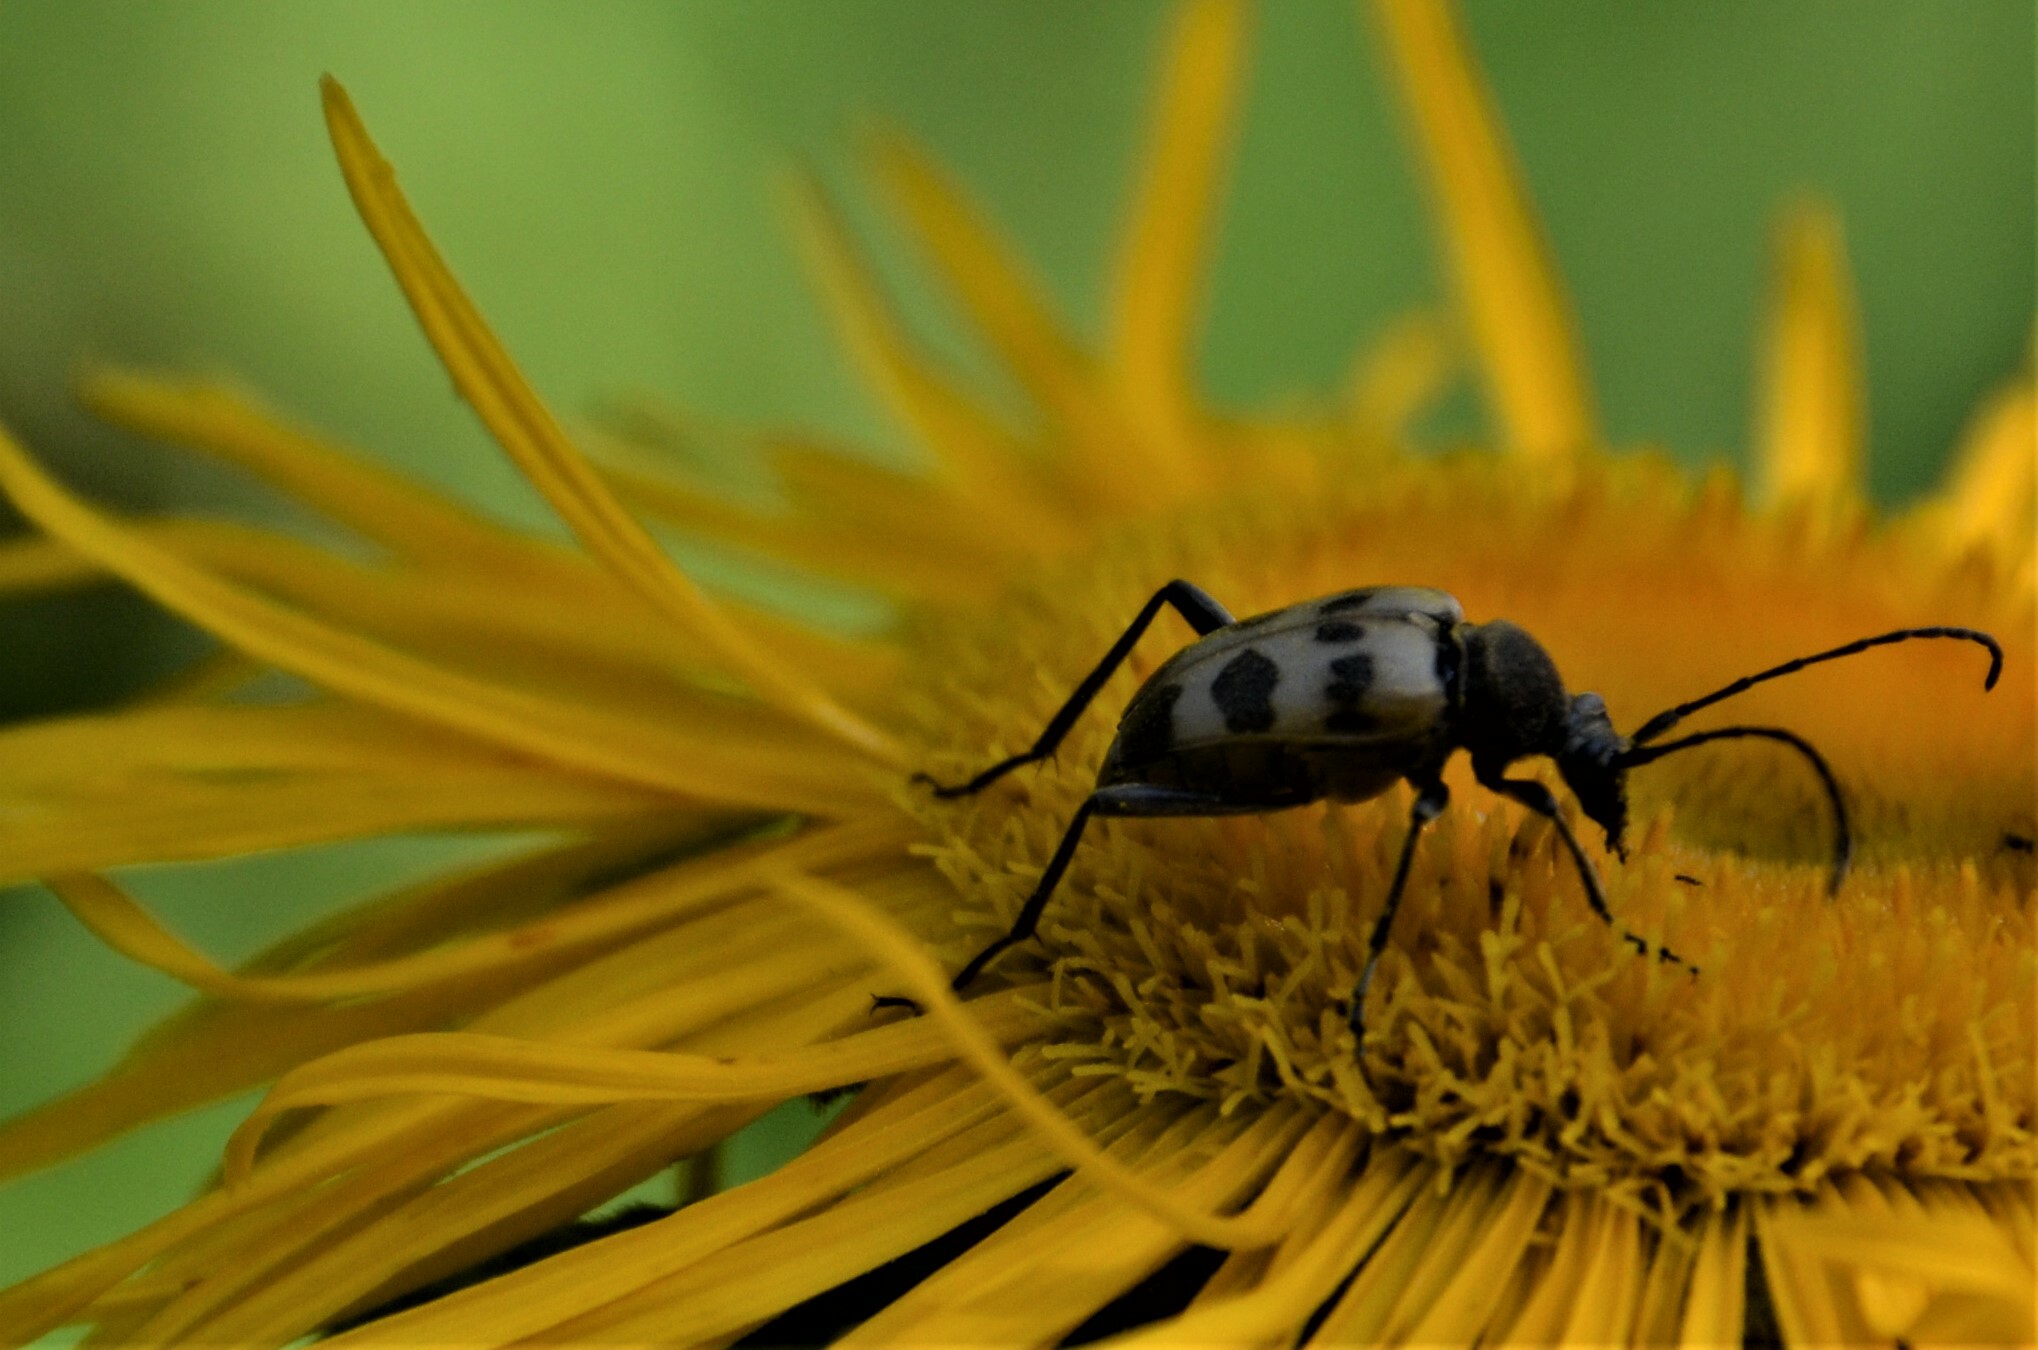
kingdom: Animalia
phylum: Arthropoda
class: Insecta
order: Coleoptera
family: Cerambycidae
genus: Pachytodes
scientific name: Pachytodes cerambyciformis
